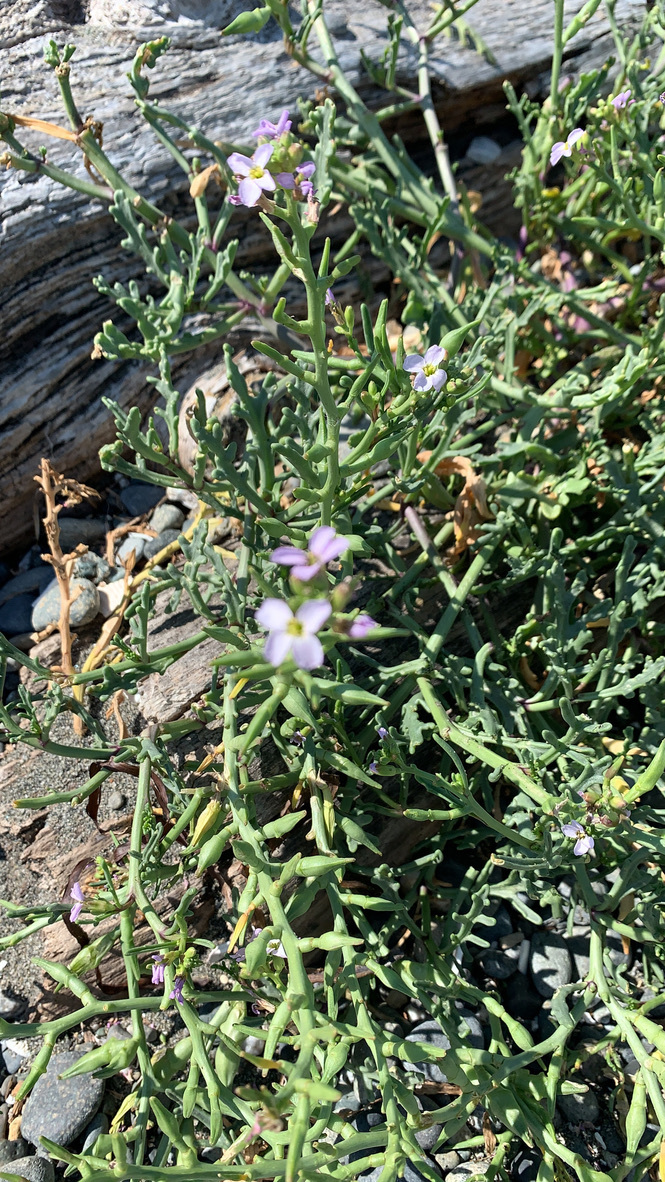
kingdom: Plantae
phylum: Tracheophyta
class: Magnoliopsida
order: Brassicales
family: Brassicaceae
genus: Cakile
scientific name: Cakile maritima
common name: Sea rocket
